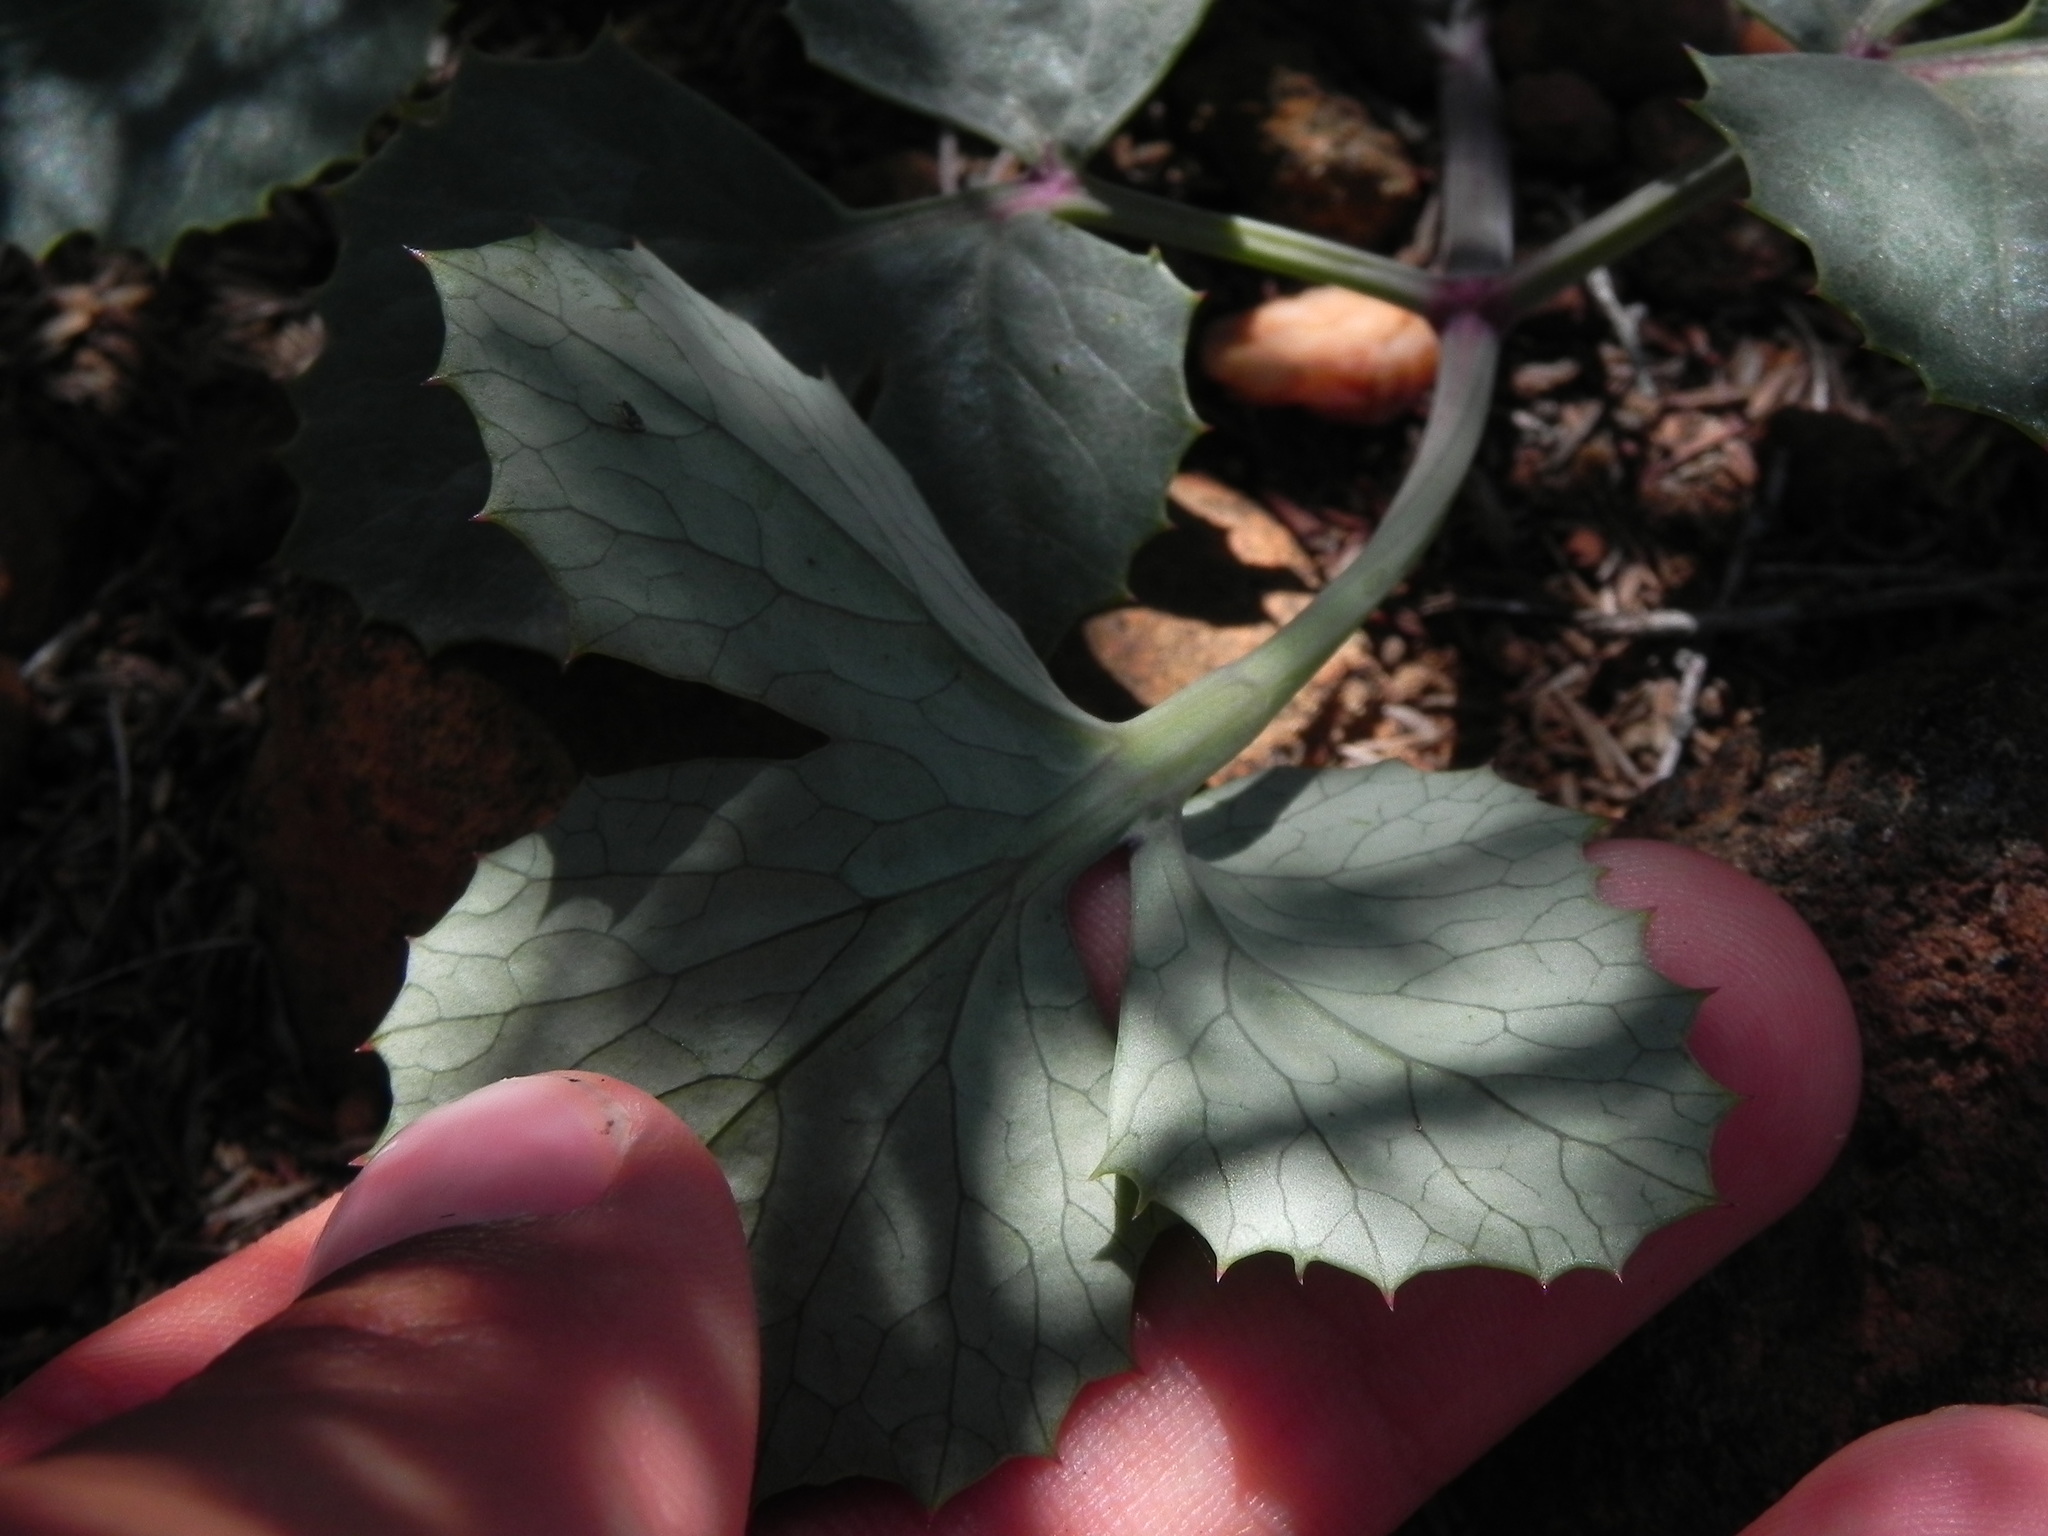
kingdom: Plantae
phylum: Tracheophyta
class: Magnoliopsida
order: Apiales
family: Apiaceae
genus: Lomatium
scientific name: Lomatium lucidum
